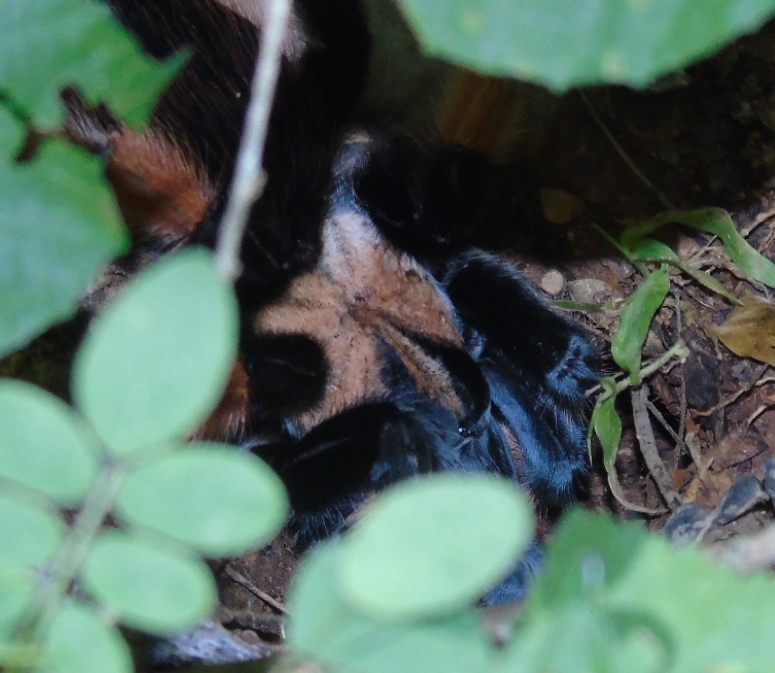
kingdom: Animalia
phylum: Arthropoda
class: Arachnida
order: Araneae
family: Theraphosidae
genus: Brachypelma
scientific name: Brachypelma emilia
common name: Mexican redleg
